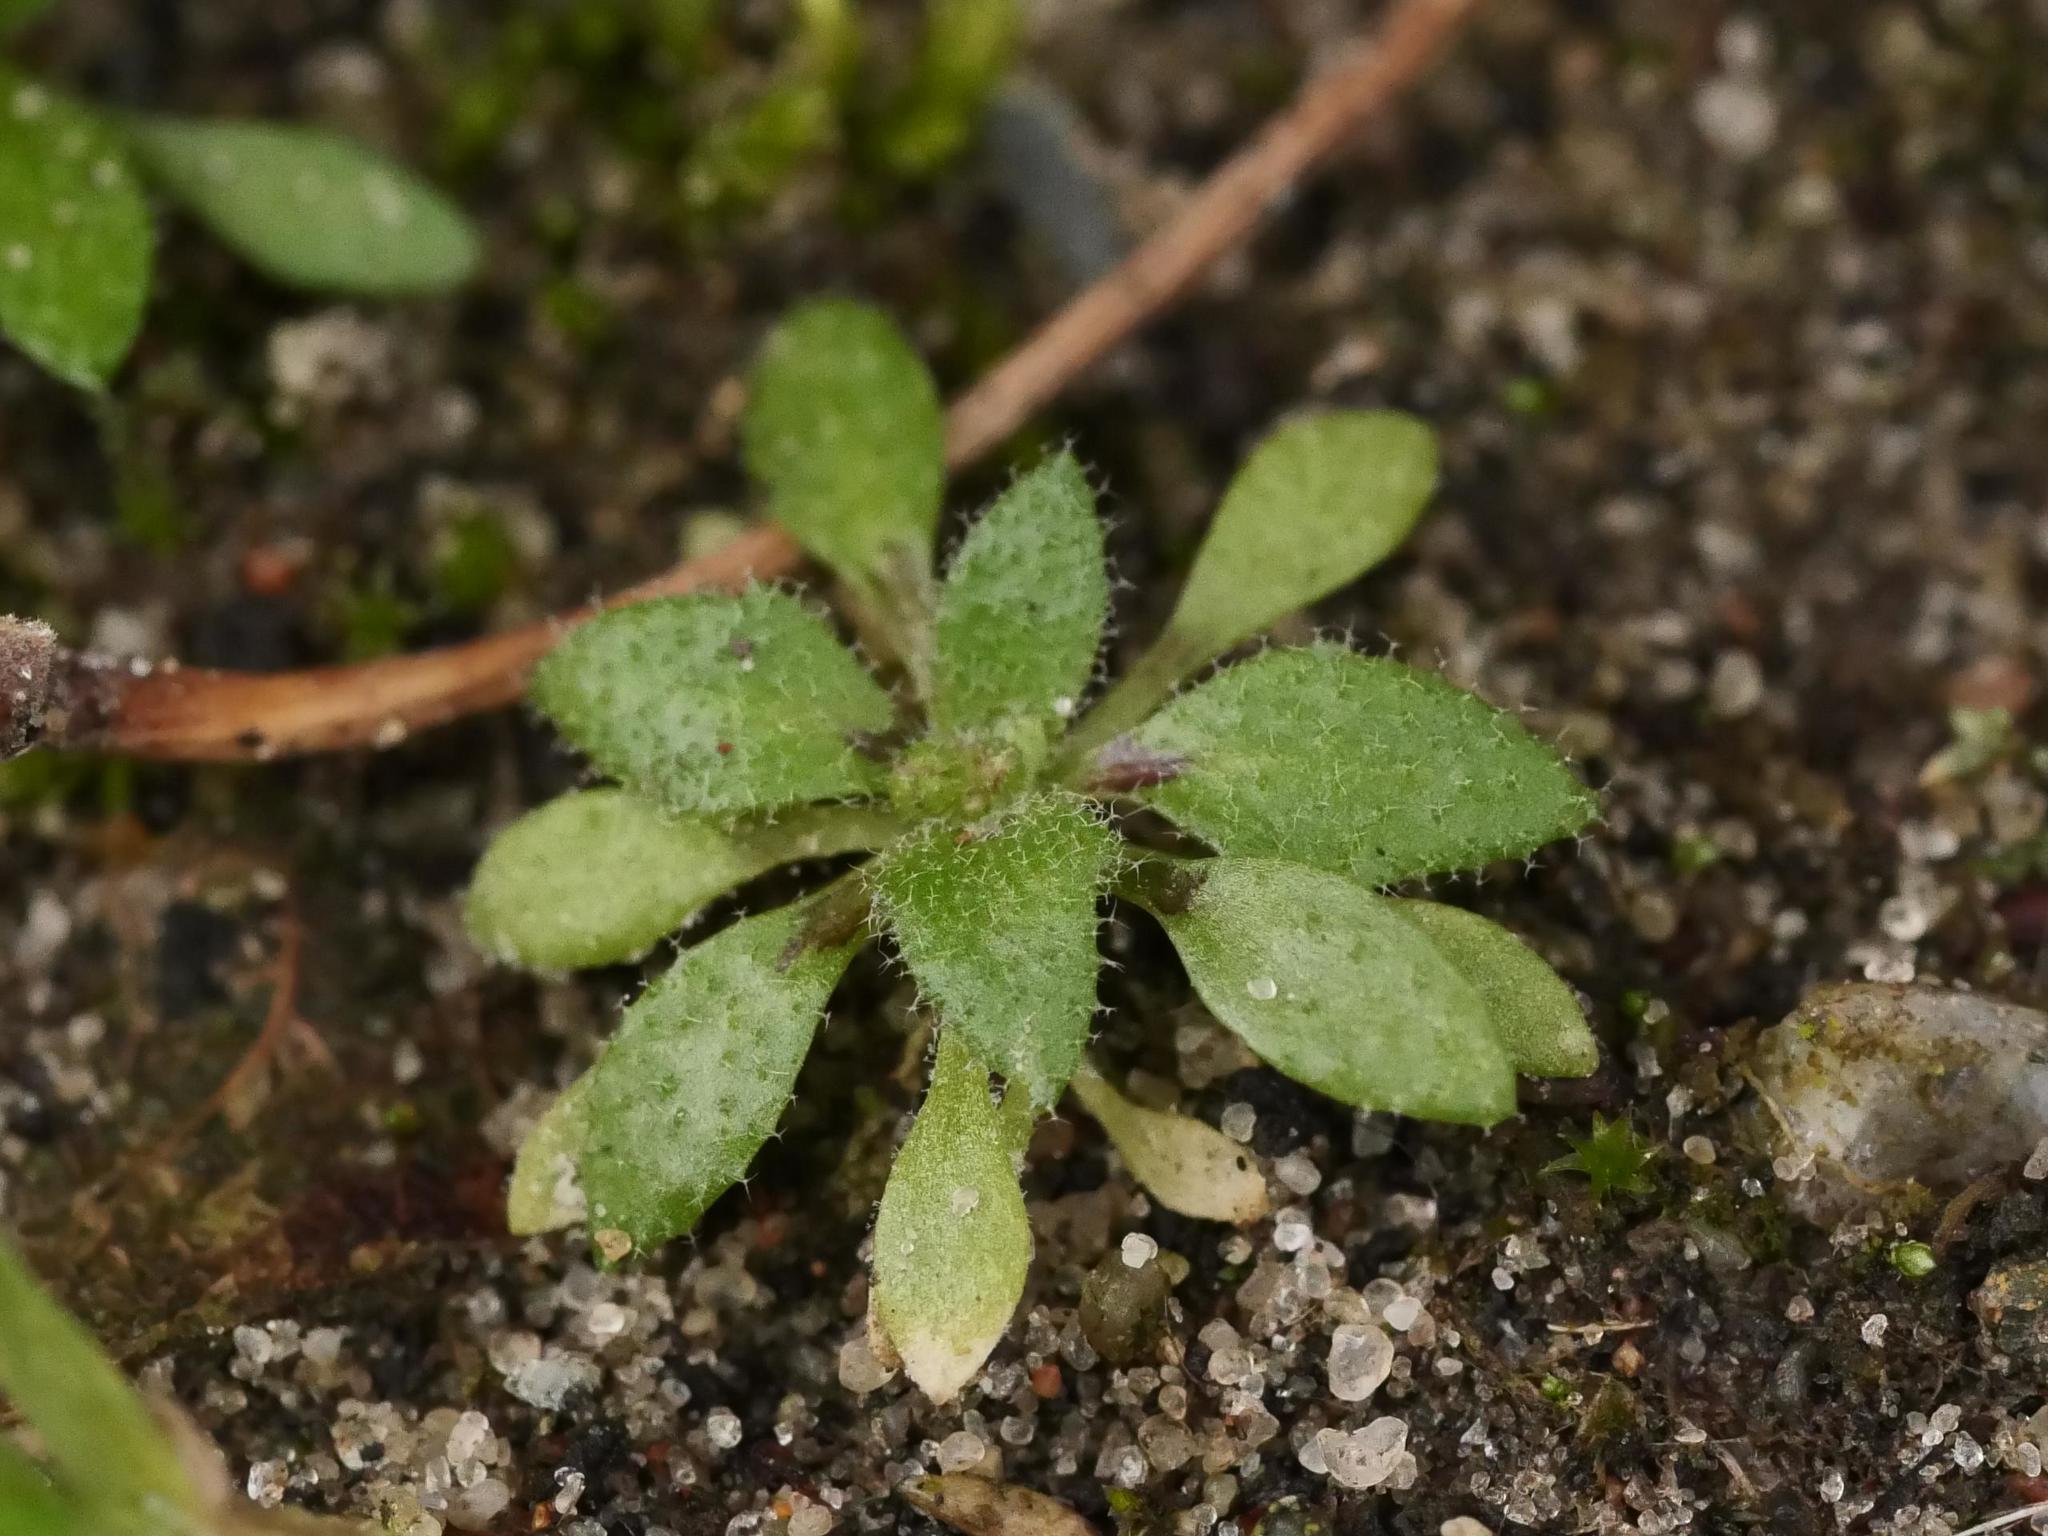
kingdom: Plantae
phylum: Tracheophyta
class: Magnoliopsida
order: Brassicales
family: Brassicaceae
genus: Draba
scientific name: Draba verna
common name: Spring draba
